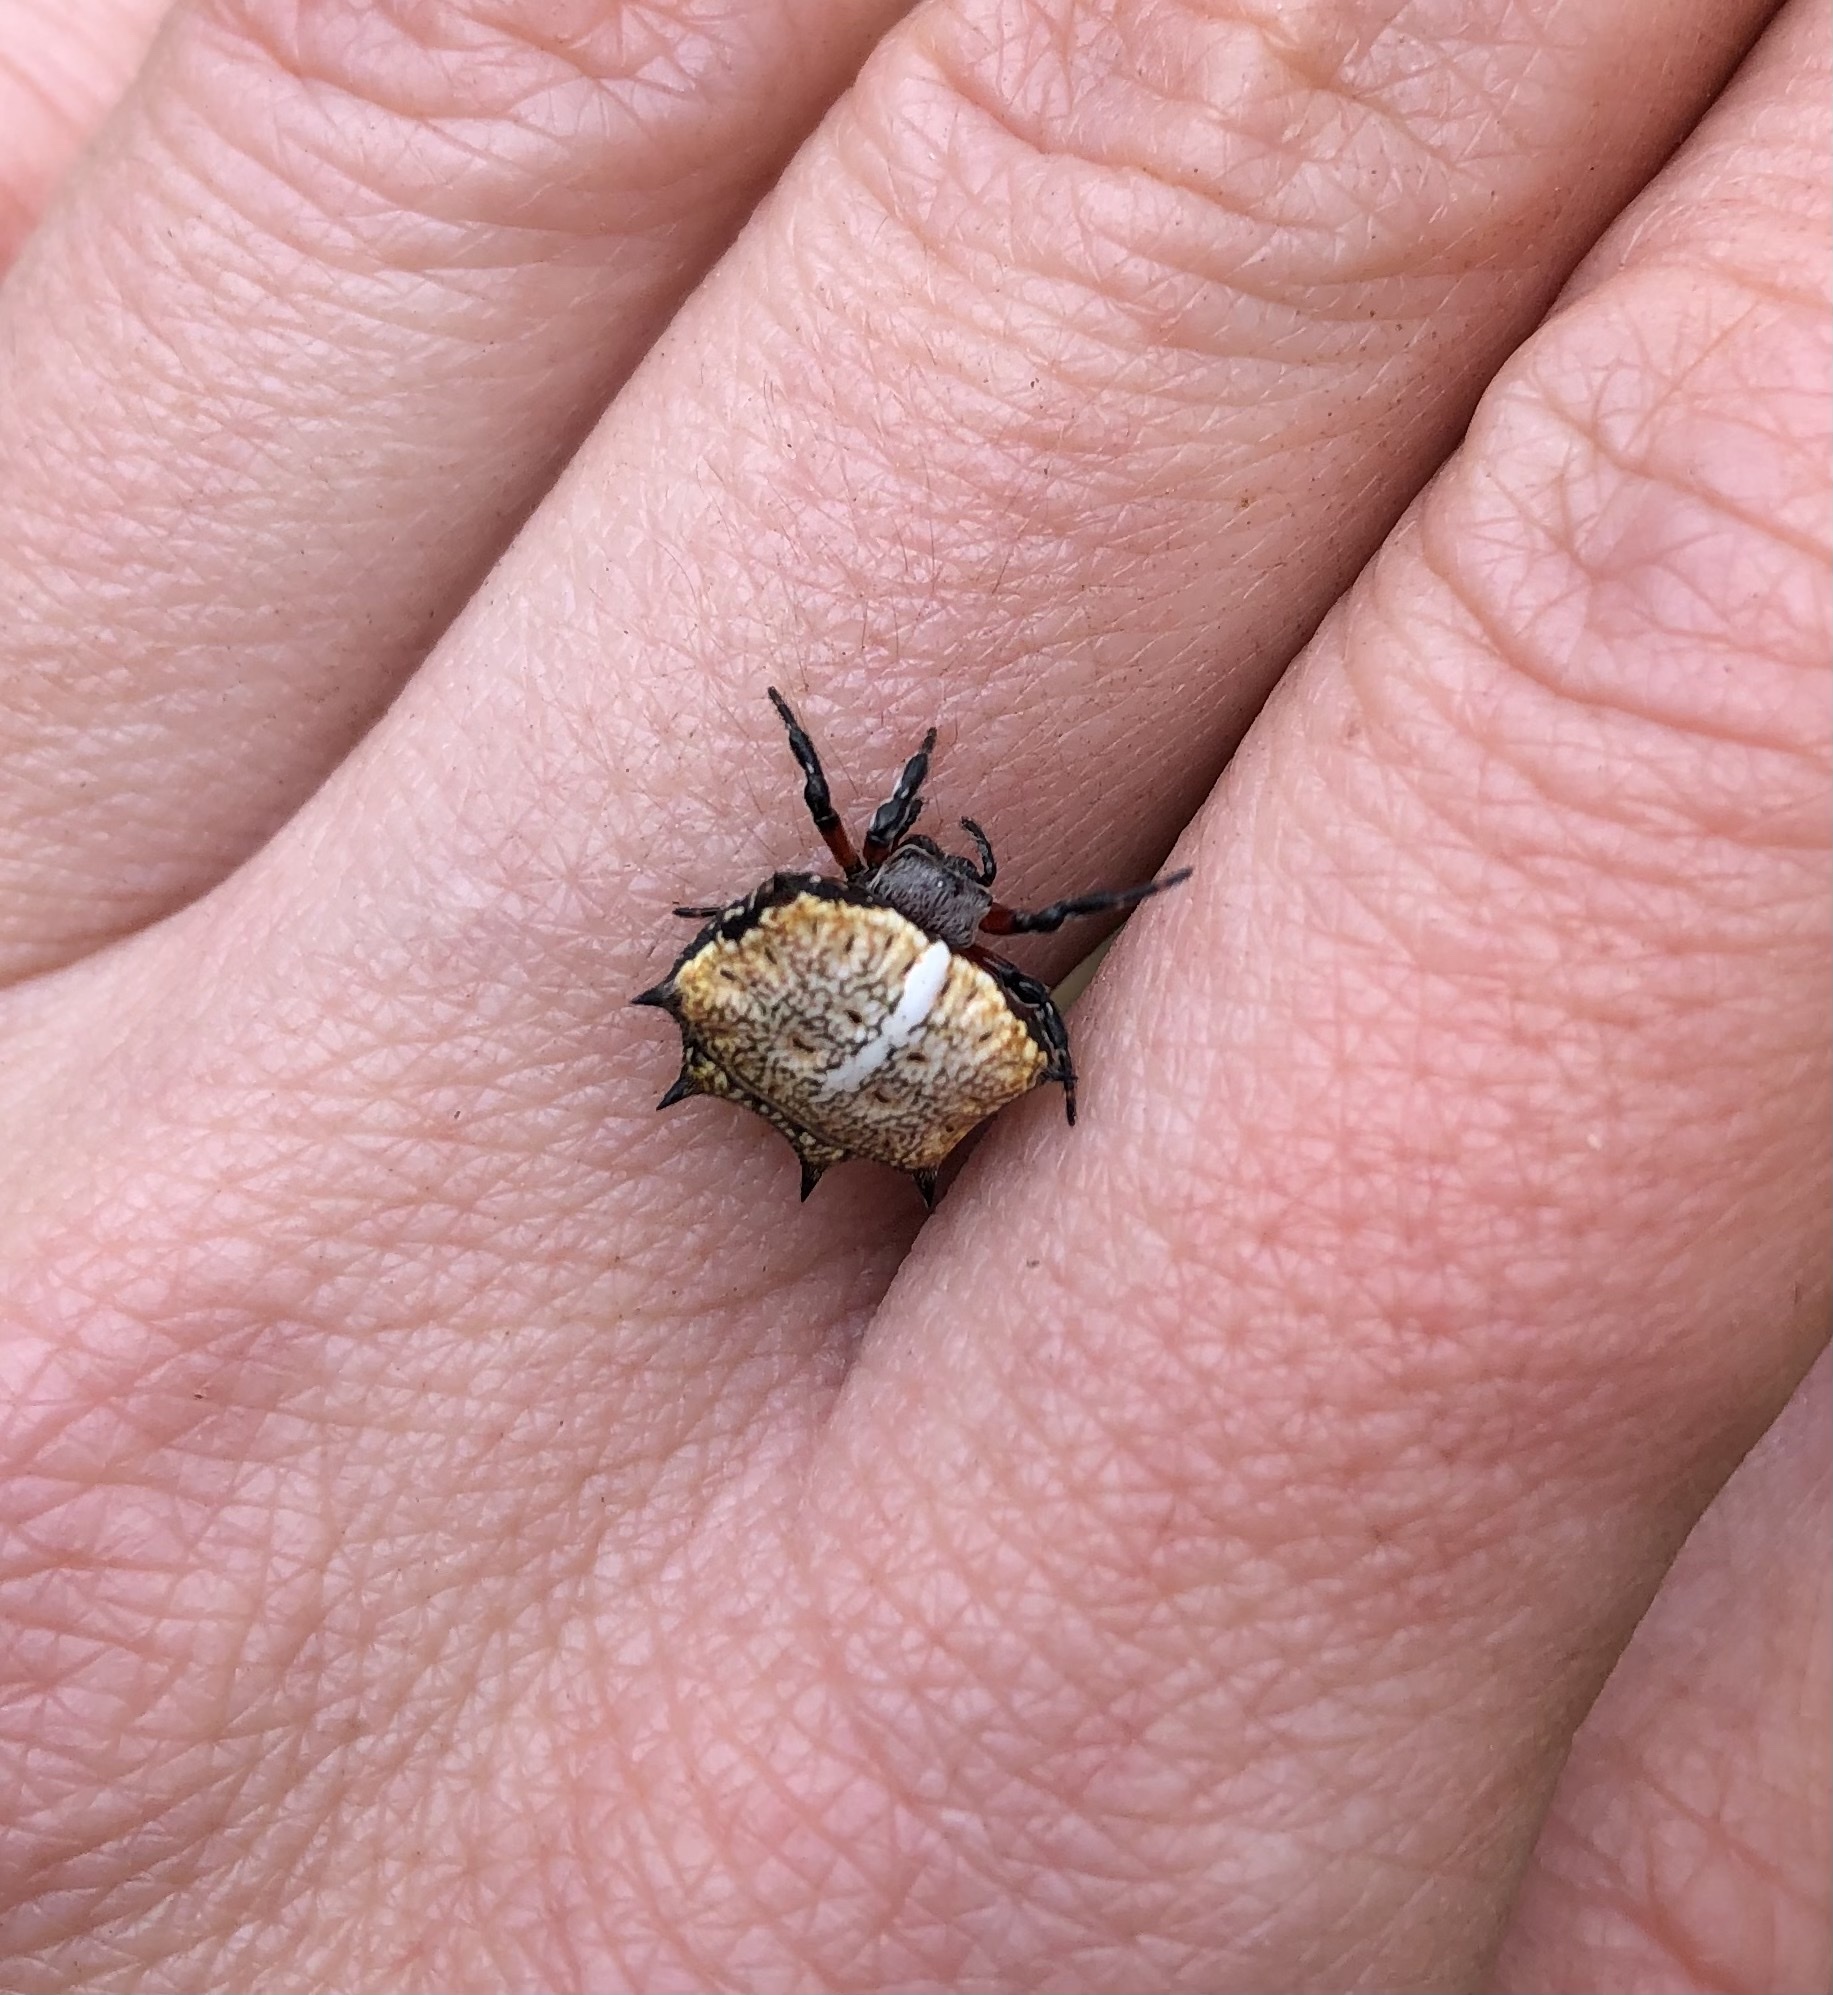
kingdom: Animalia
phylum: Arthropoda
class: Arachnida
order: Araneae
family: Araneidae
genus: Isoxya
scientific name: Isoxya tabulata
